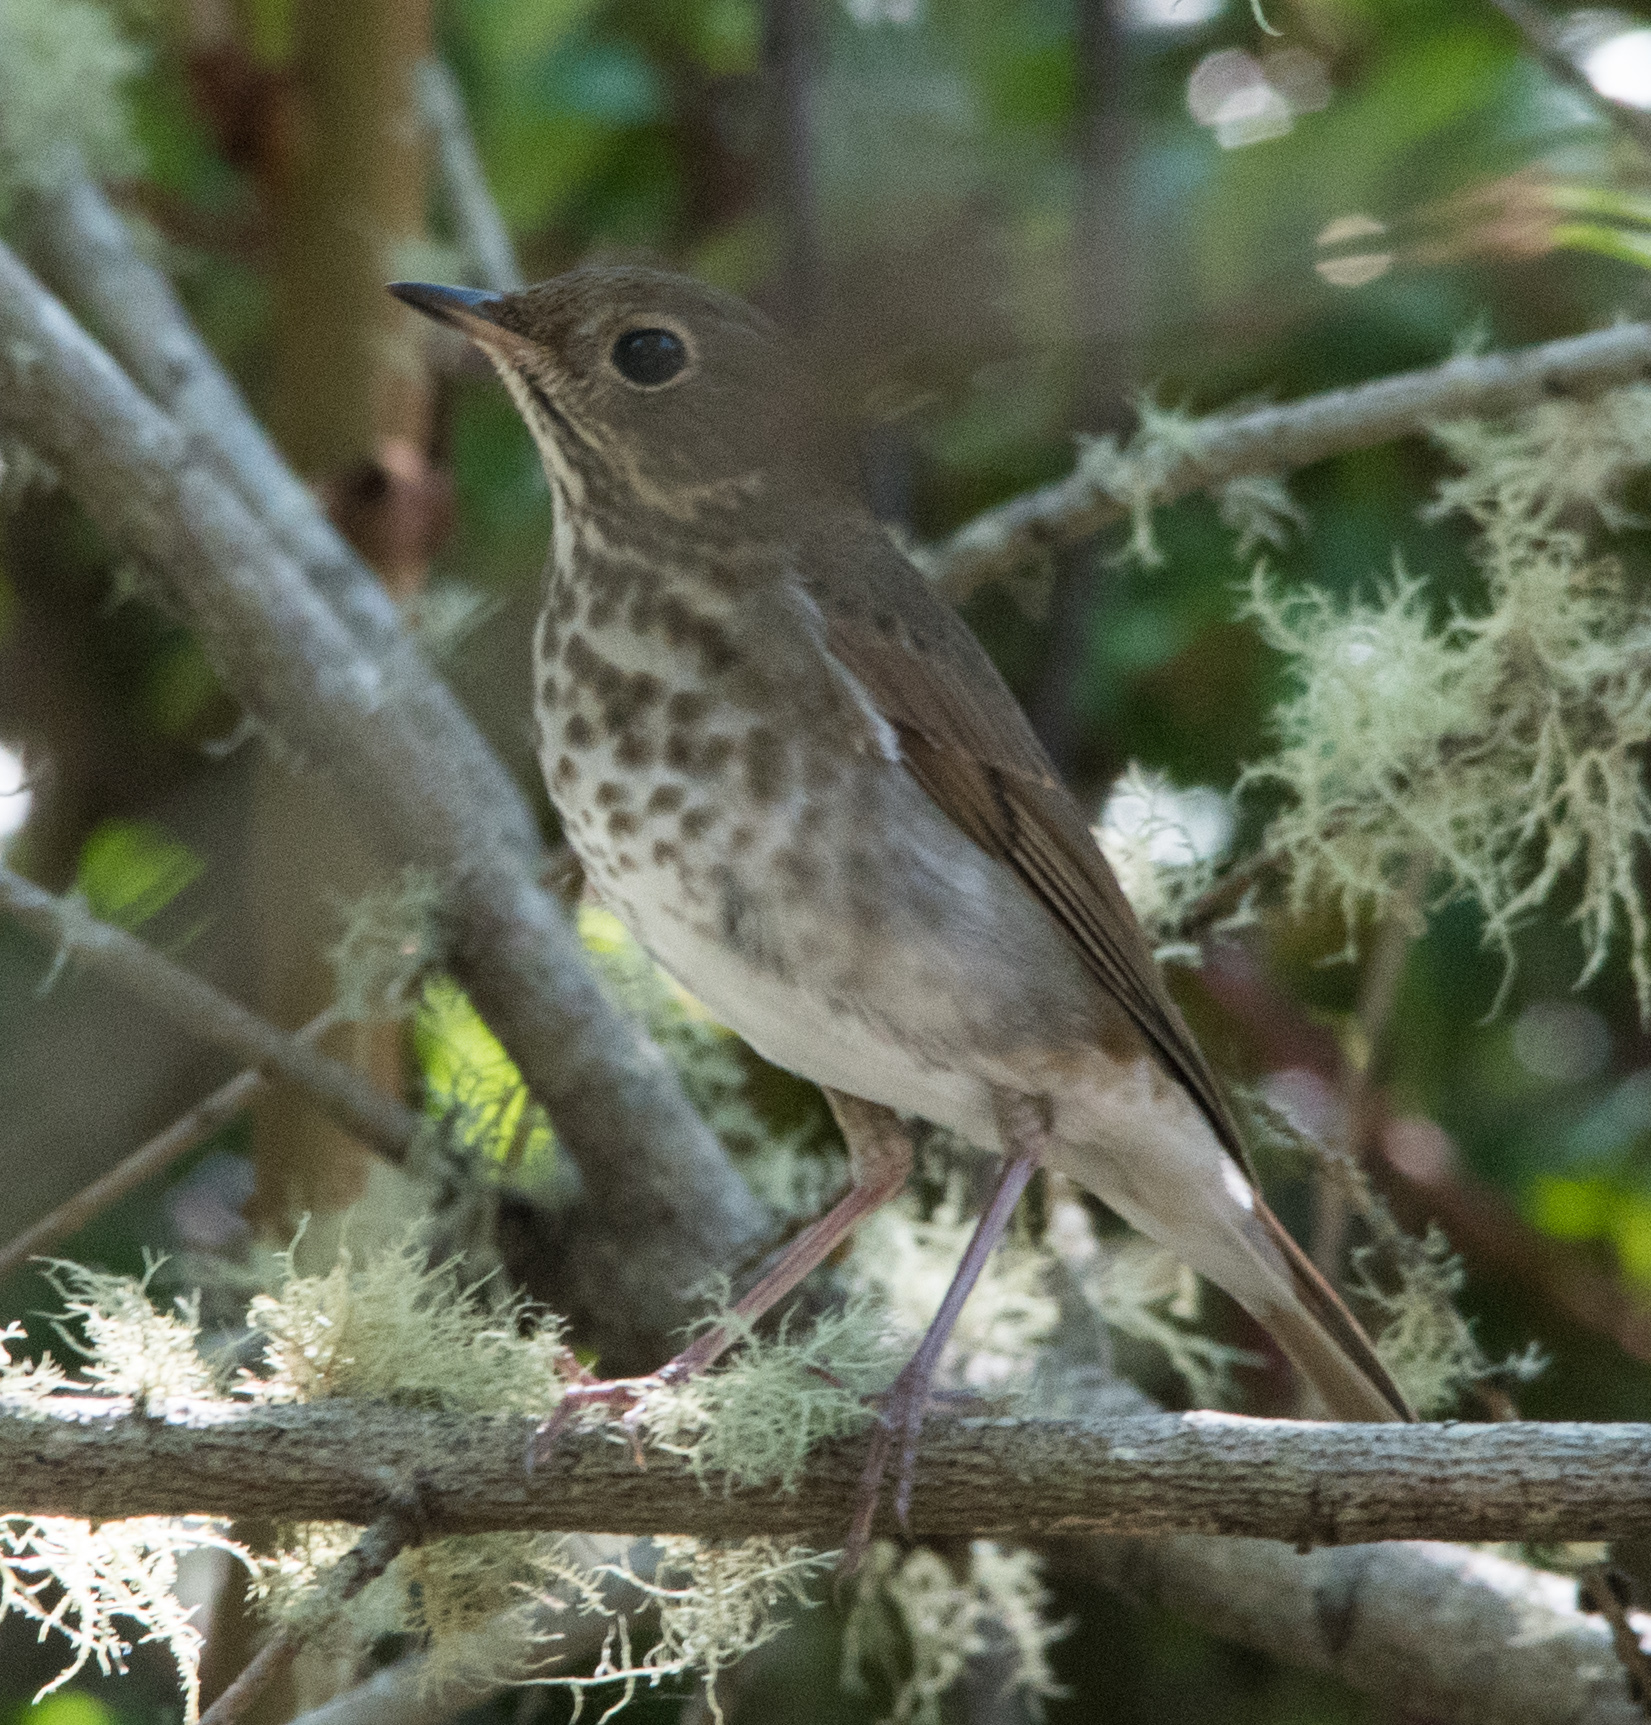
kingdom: Animalia
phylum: Chordata
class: Aves
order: Passeriformes
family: Turdidae
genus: Catharus
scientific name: Catharus guttatus
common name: Hermit thrush
